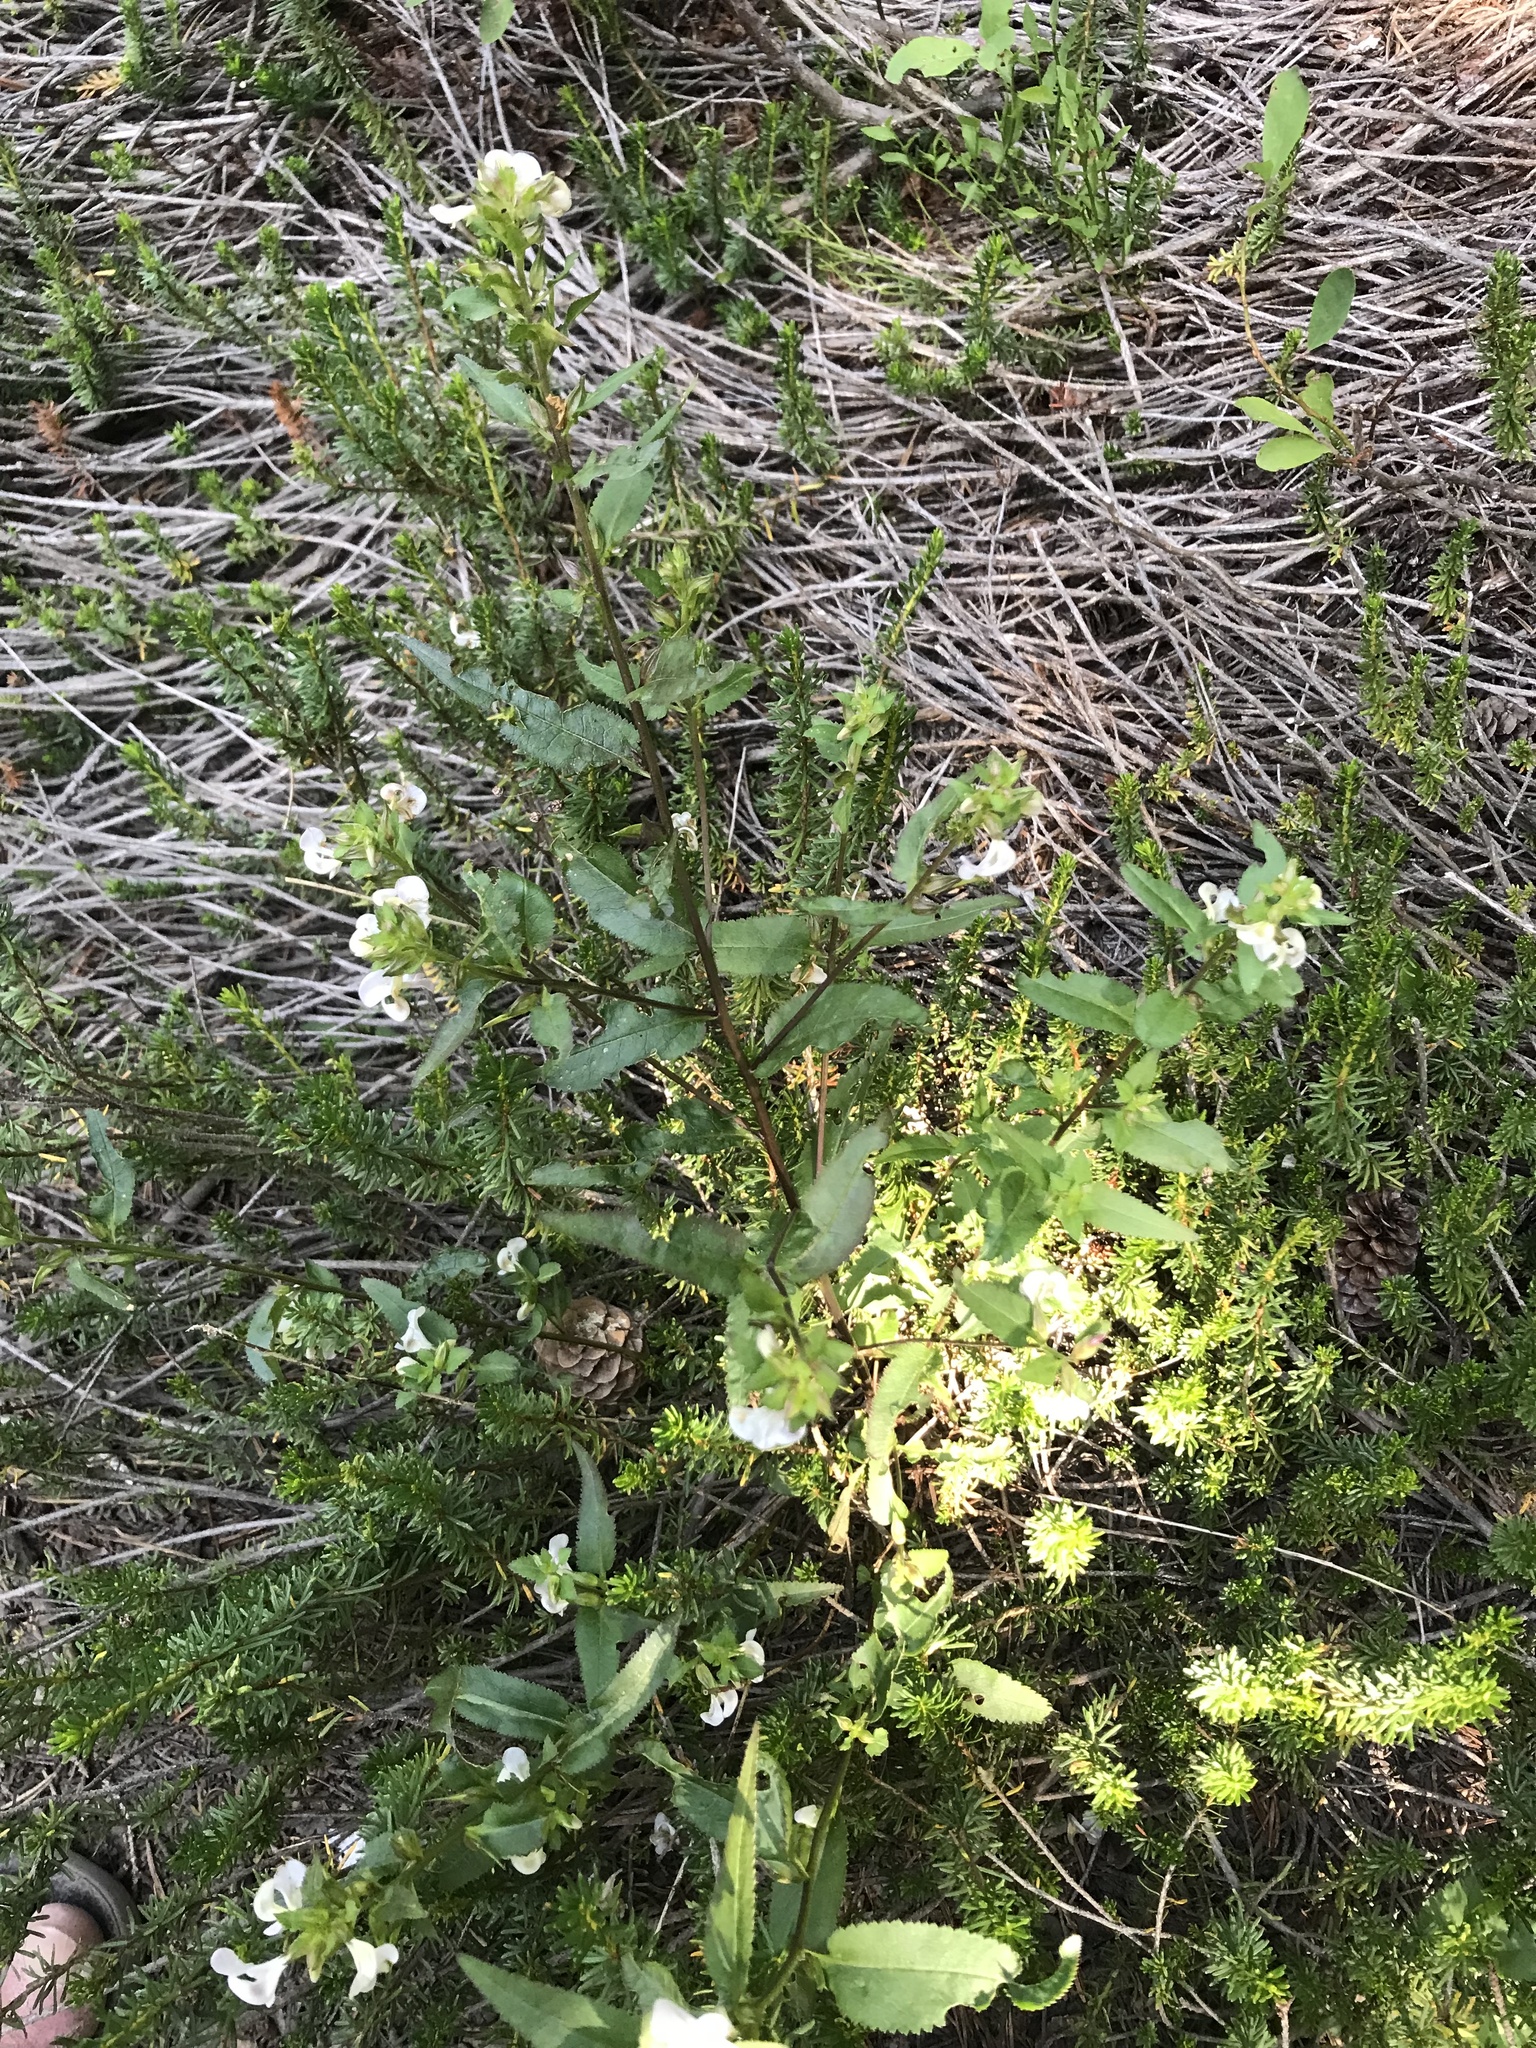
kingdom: Plantae
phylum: Tracheophyta
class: Magnoliopsida
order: Lamiales
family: Orobanchaceae
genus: Pedicularis
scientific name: Pedicularis racemosa
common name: Leafy lousewort
